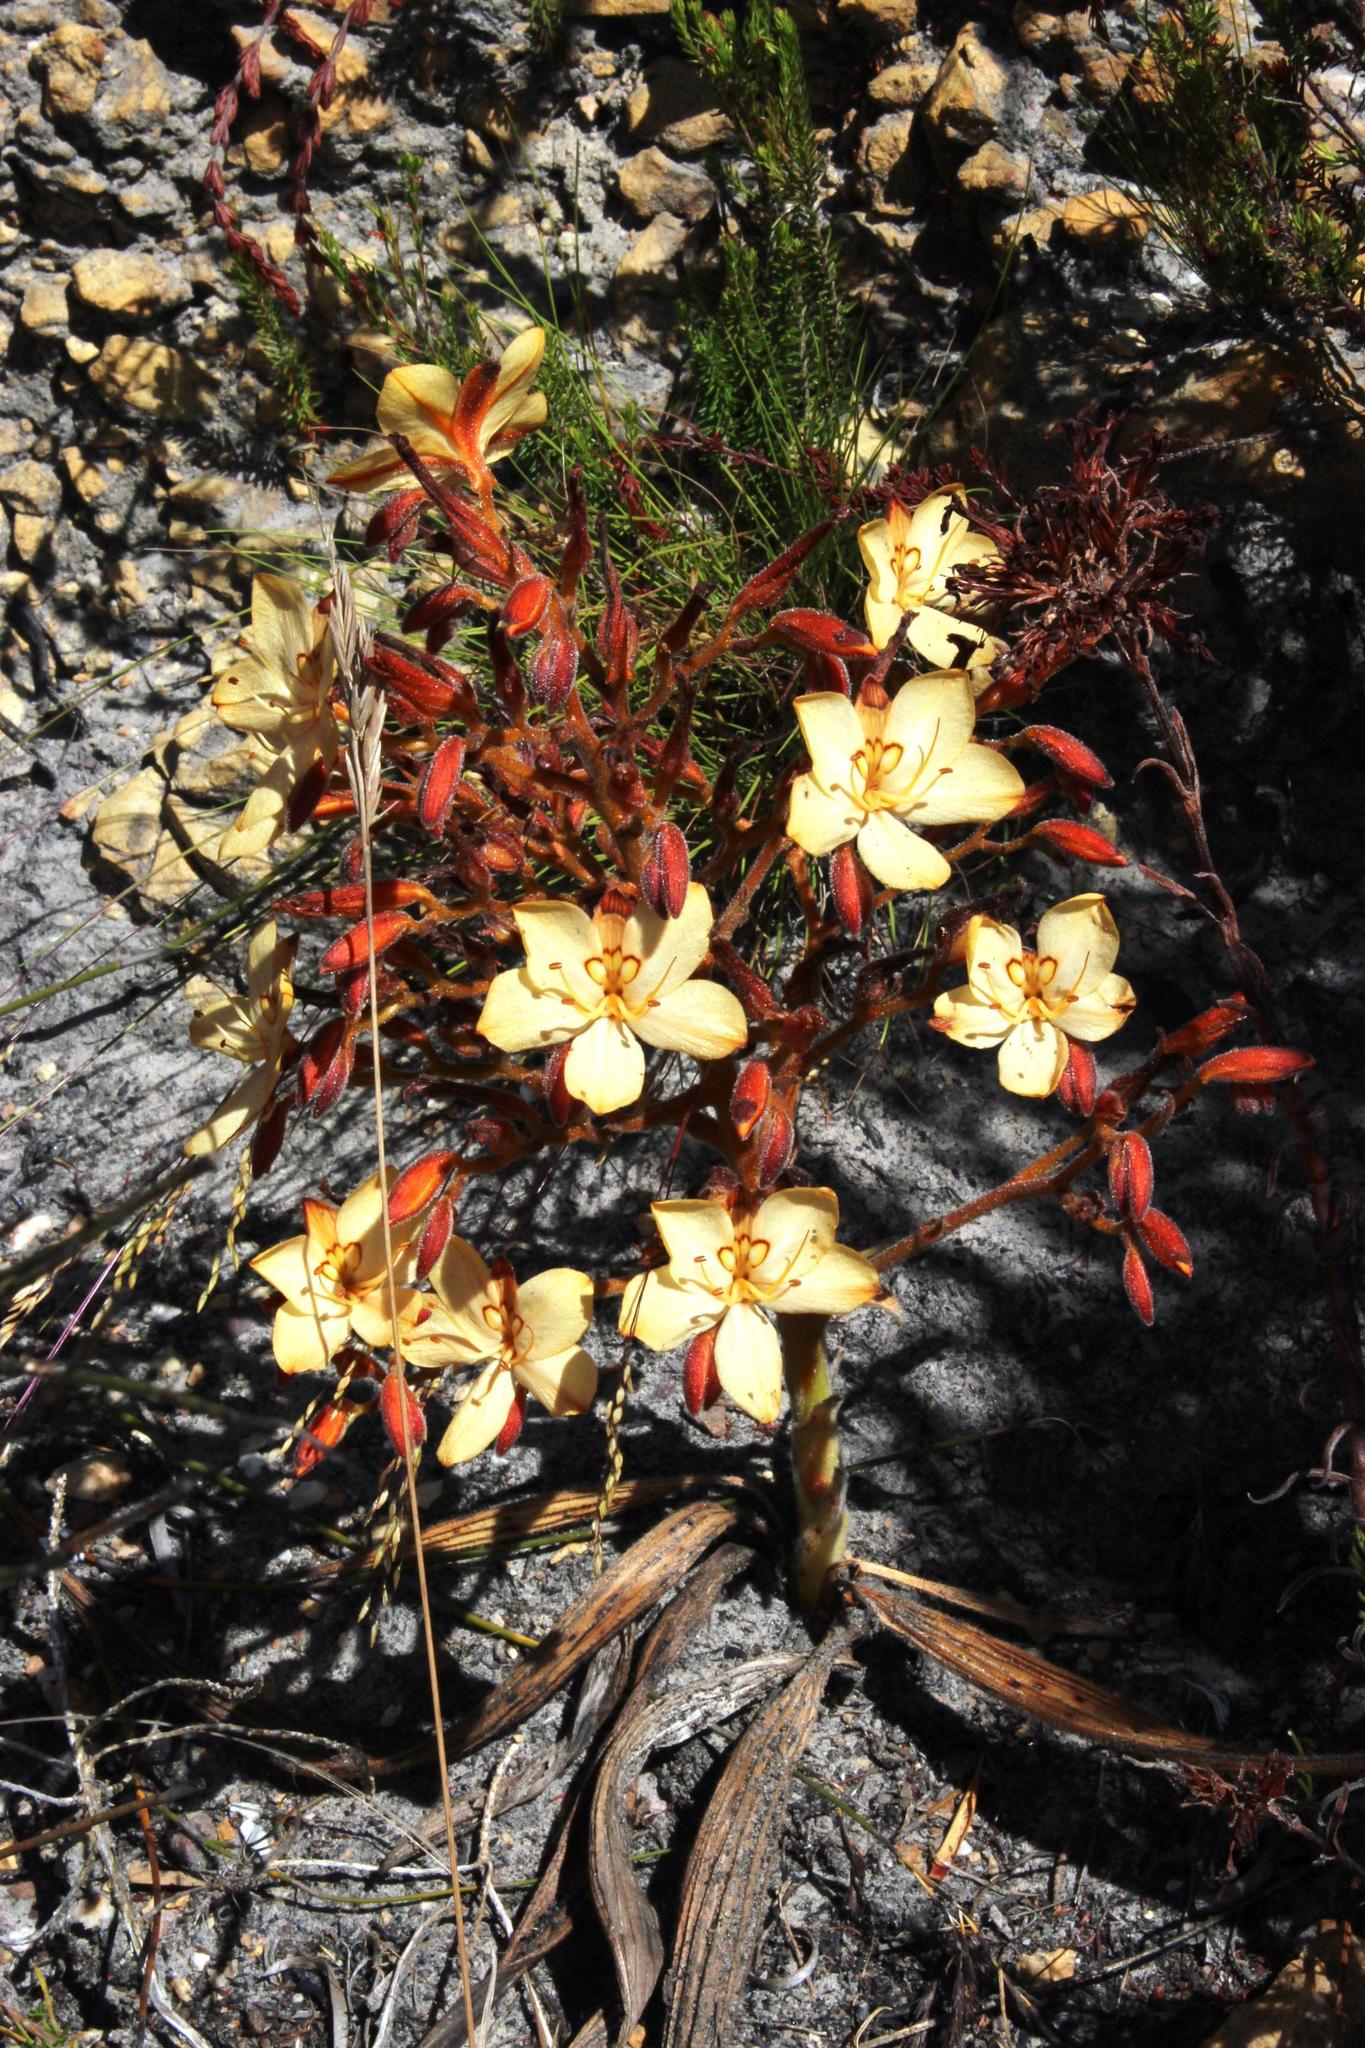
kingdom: Plantae
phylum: Tracheophyta
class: Liliopsida
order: Commelinales
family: Haemodoraceae
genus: Wachendorfia
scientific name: Wachendorfia paniculata
